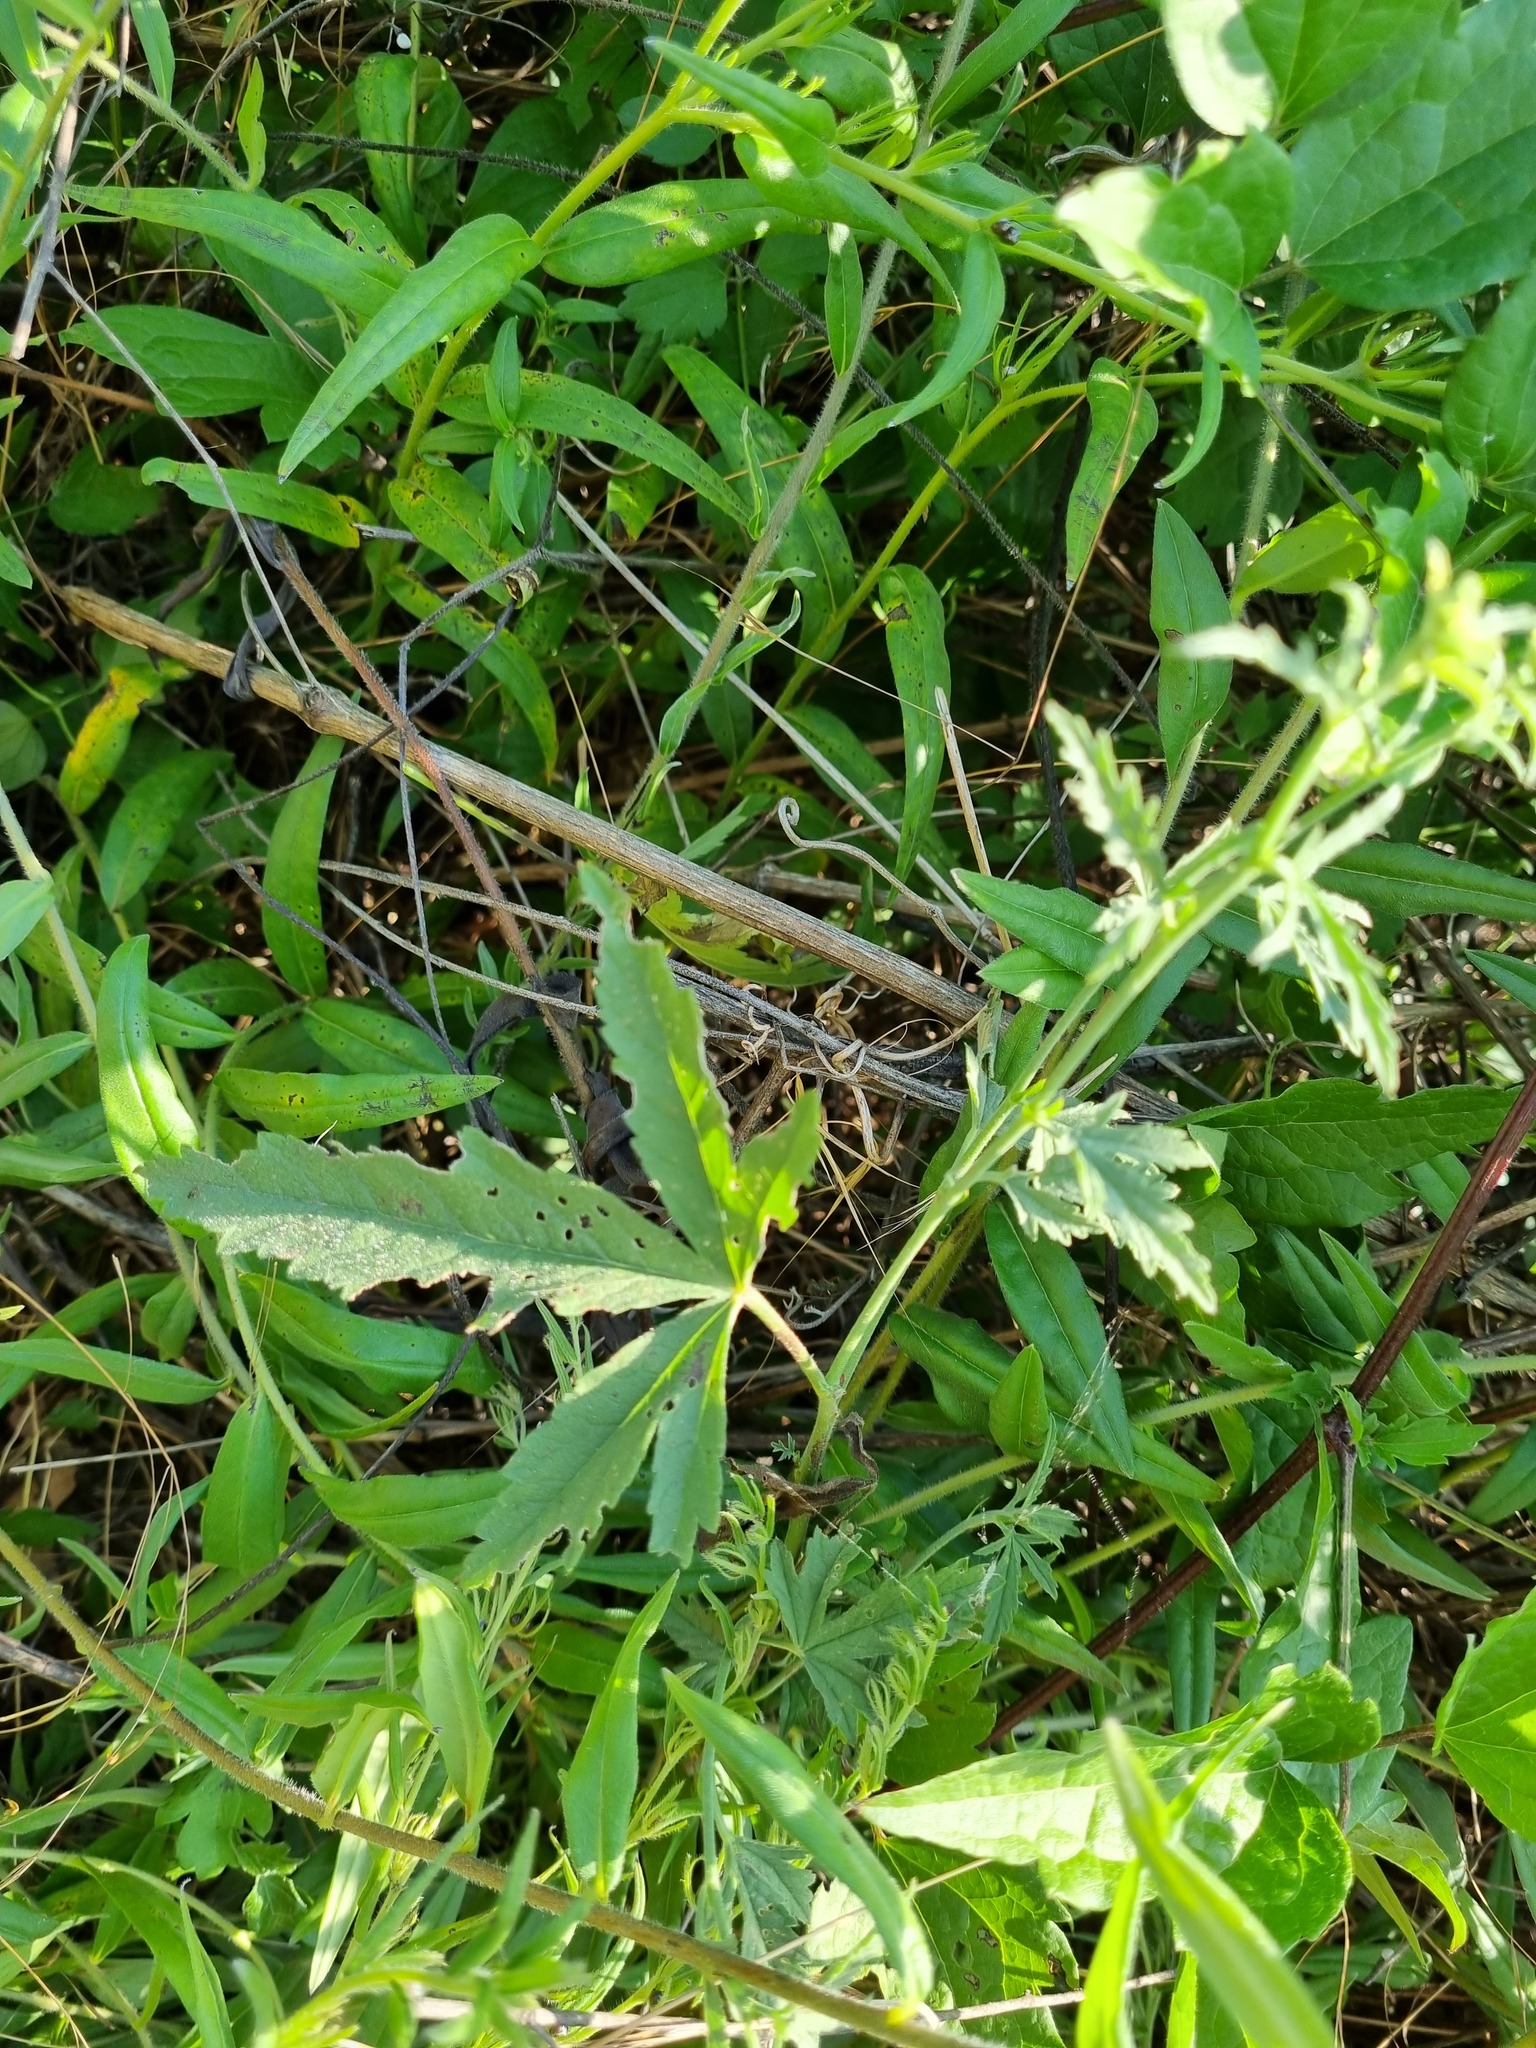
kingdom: Plantae
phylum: Tracheophyta
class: Magnoliopsida
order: Malvales
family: Malvaceae
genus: Althaea
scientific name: Althaea cannabina
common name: Palm-leaf marshmallow
